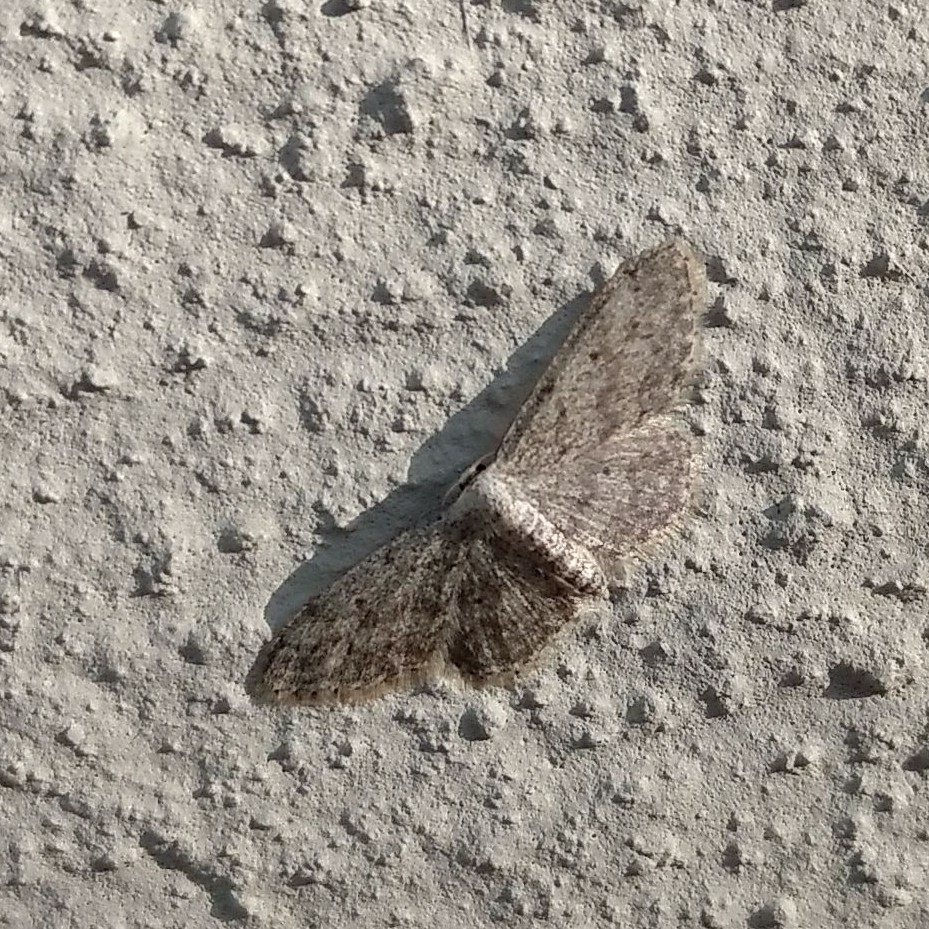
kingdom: Animalia
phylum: Arthropoda
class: Insecta
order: Lepidoptera
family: Geometridae
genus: Idaea
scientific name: Idaea seriata
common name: Small dusty wave
